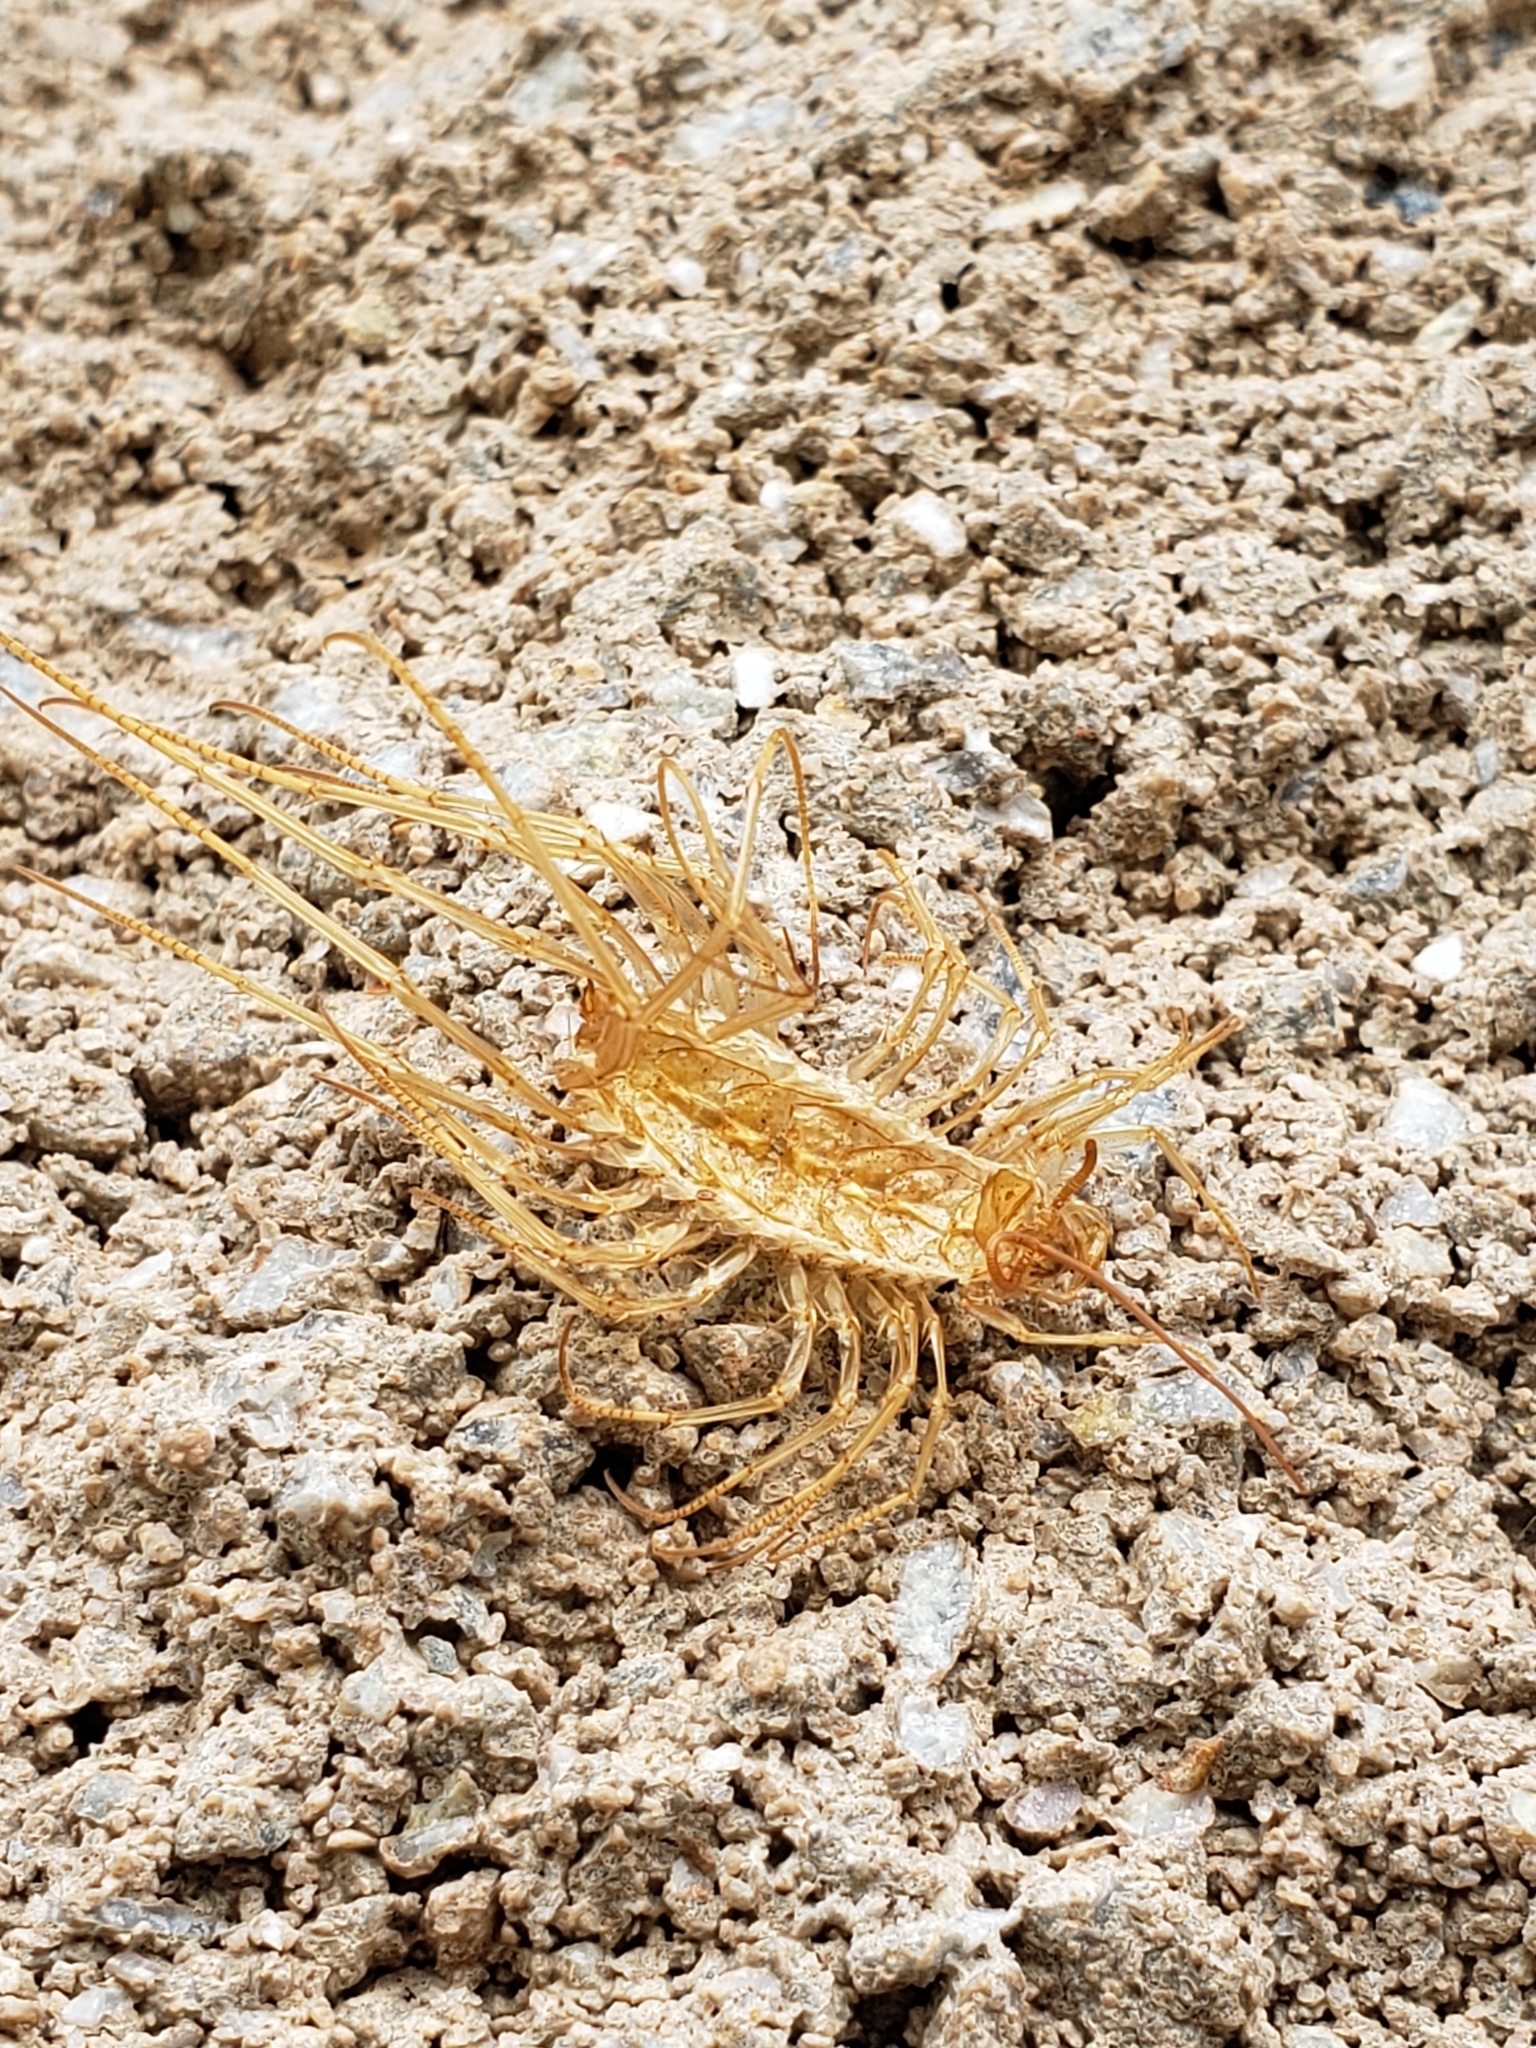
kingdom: Animalia
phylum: Arthropoda
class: Chilopoda
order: Scutigeromorpha
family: Scutigeridae
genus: Scutigera
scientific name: Scutigera coleoptrata
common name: House centipede
